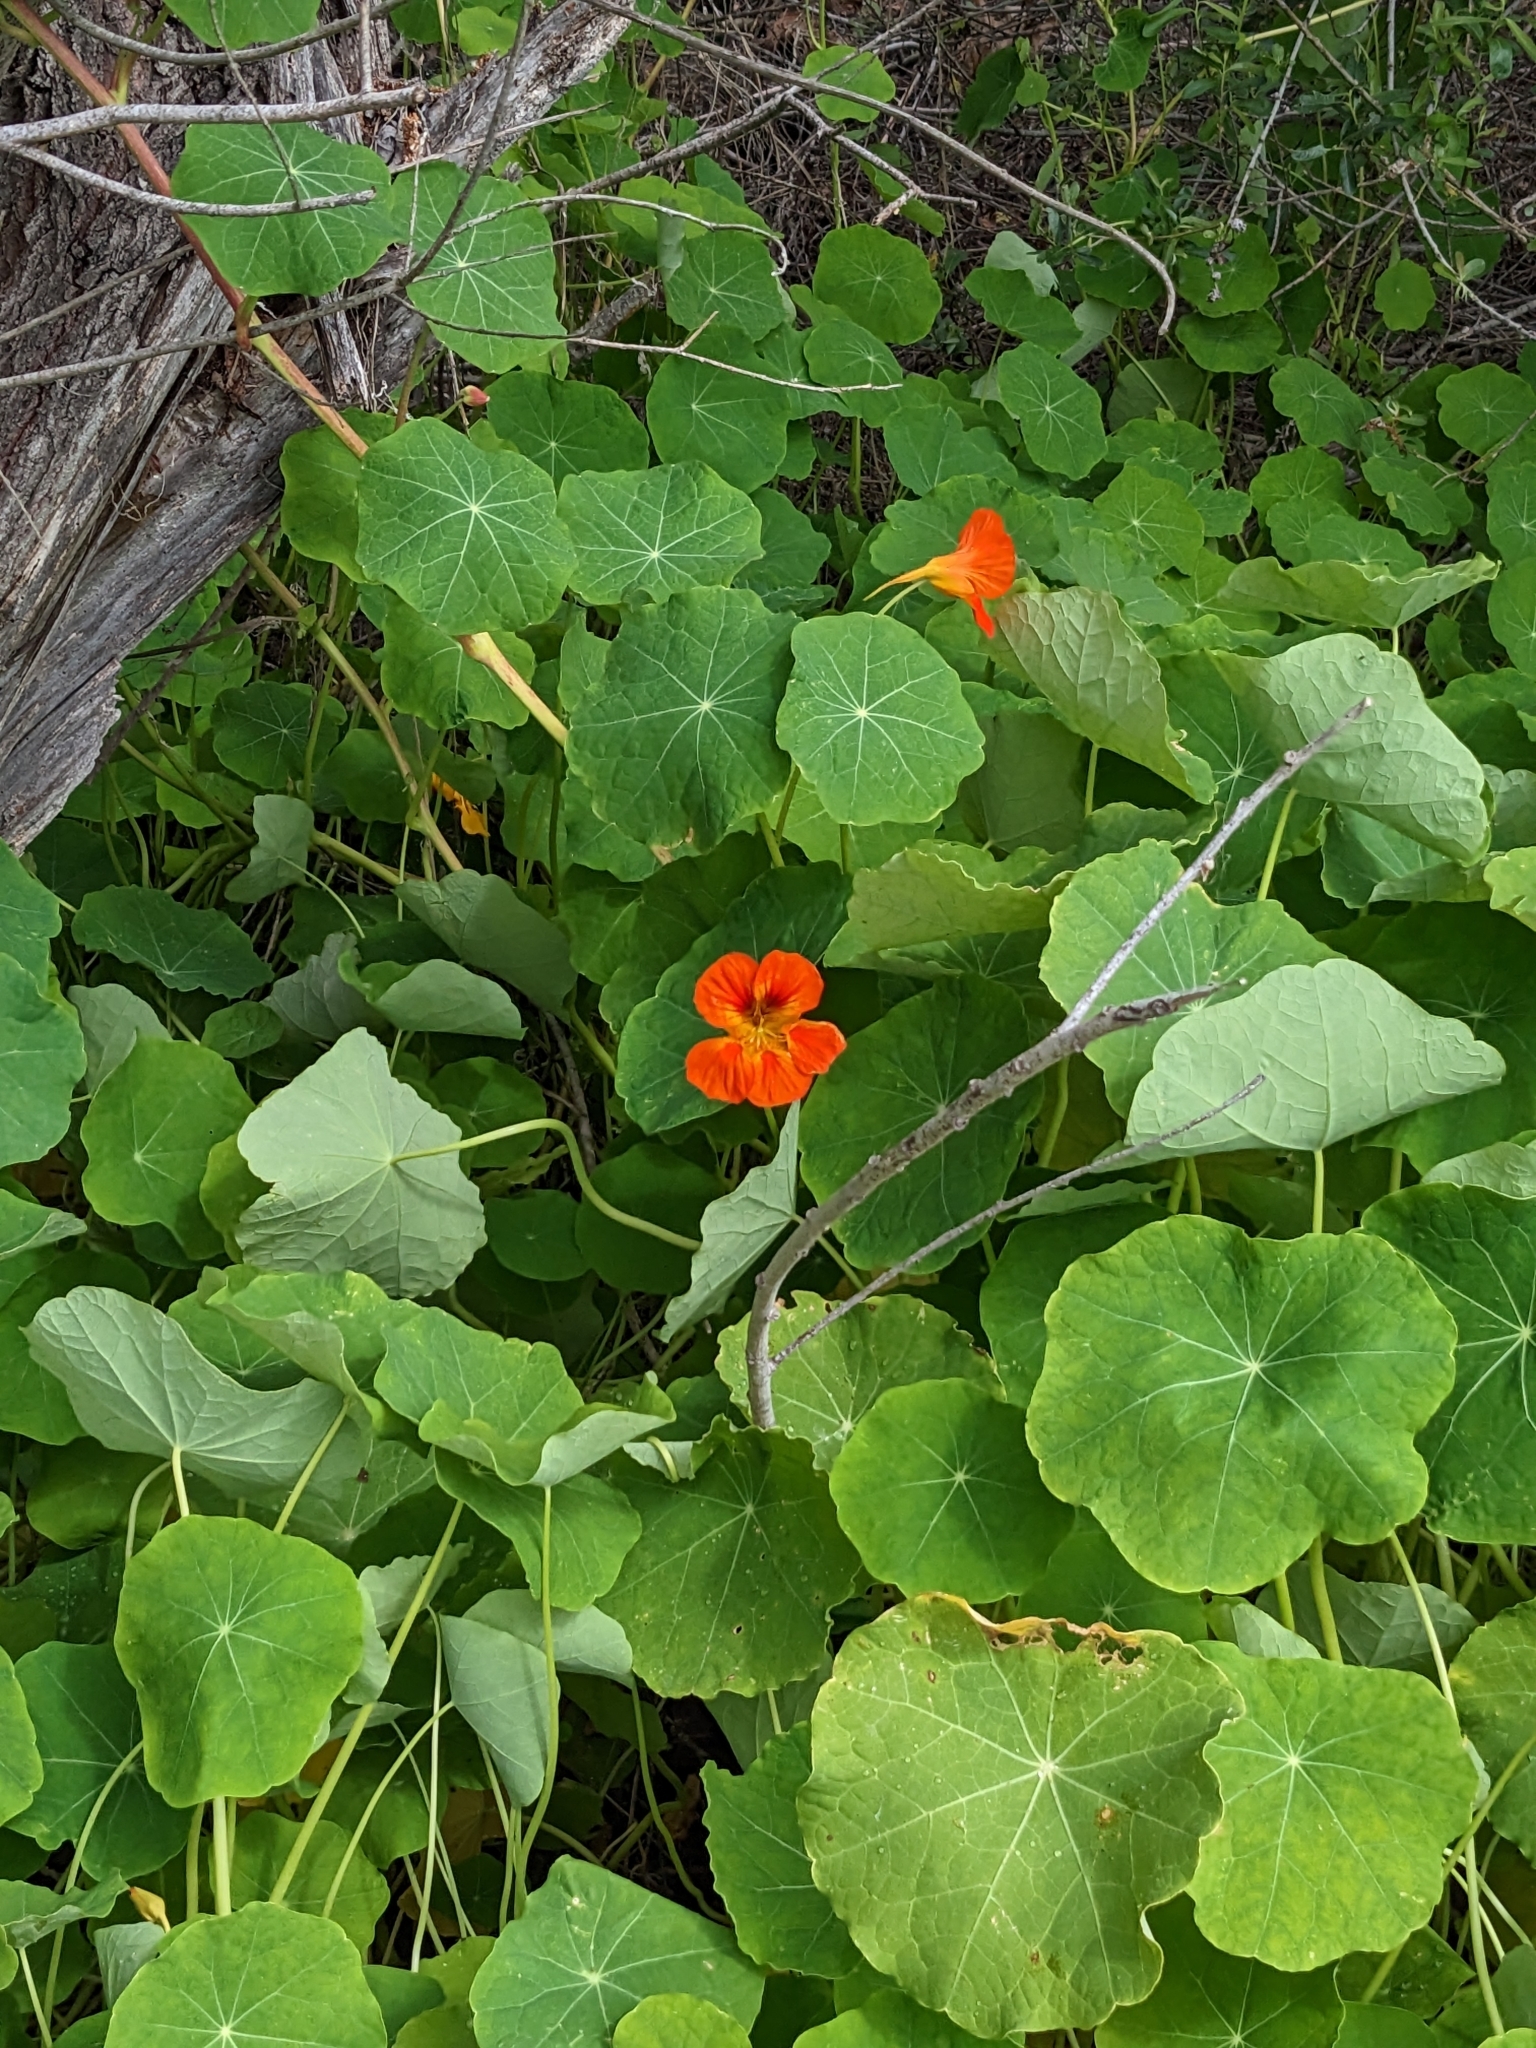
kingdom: Plantae
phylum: Tracheophyta
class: Magnoliopsida
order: Brassicales
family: Tropaeolaceae
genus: Tropaeolum
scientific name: Tropaeolum majus
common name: Nasturtium
